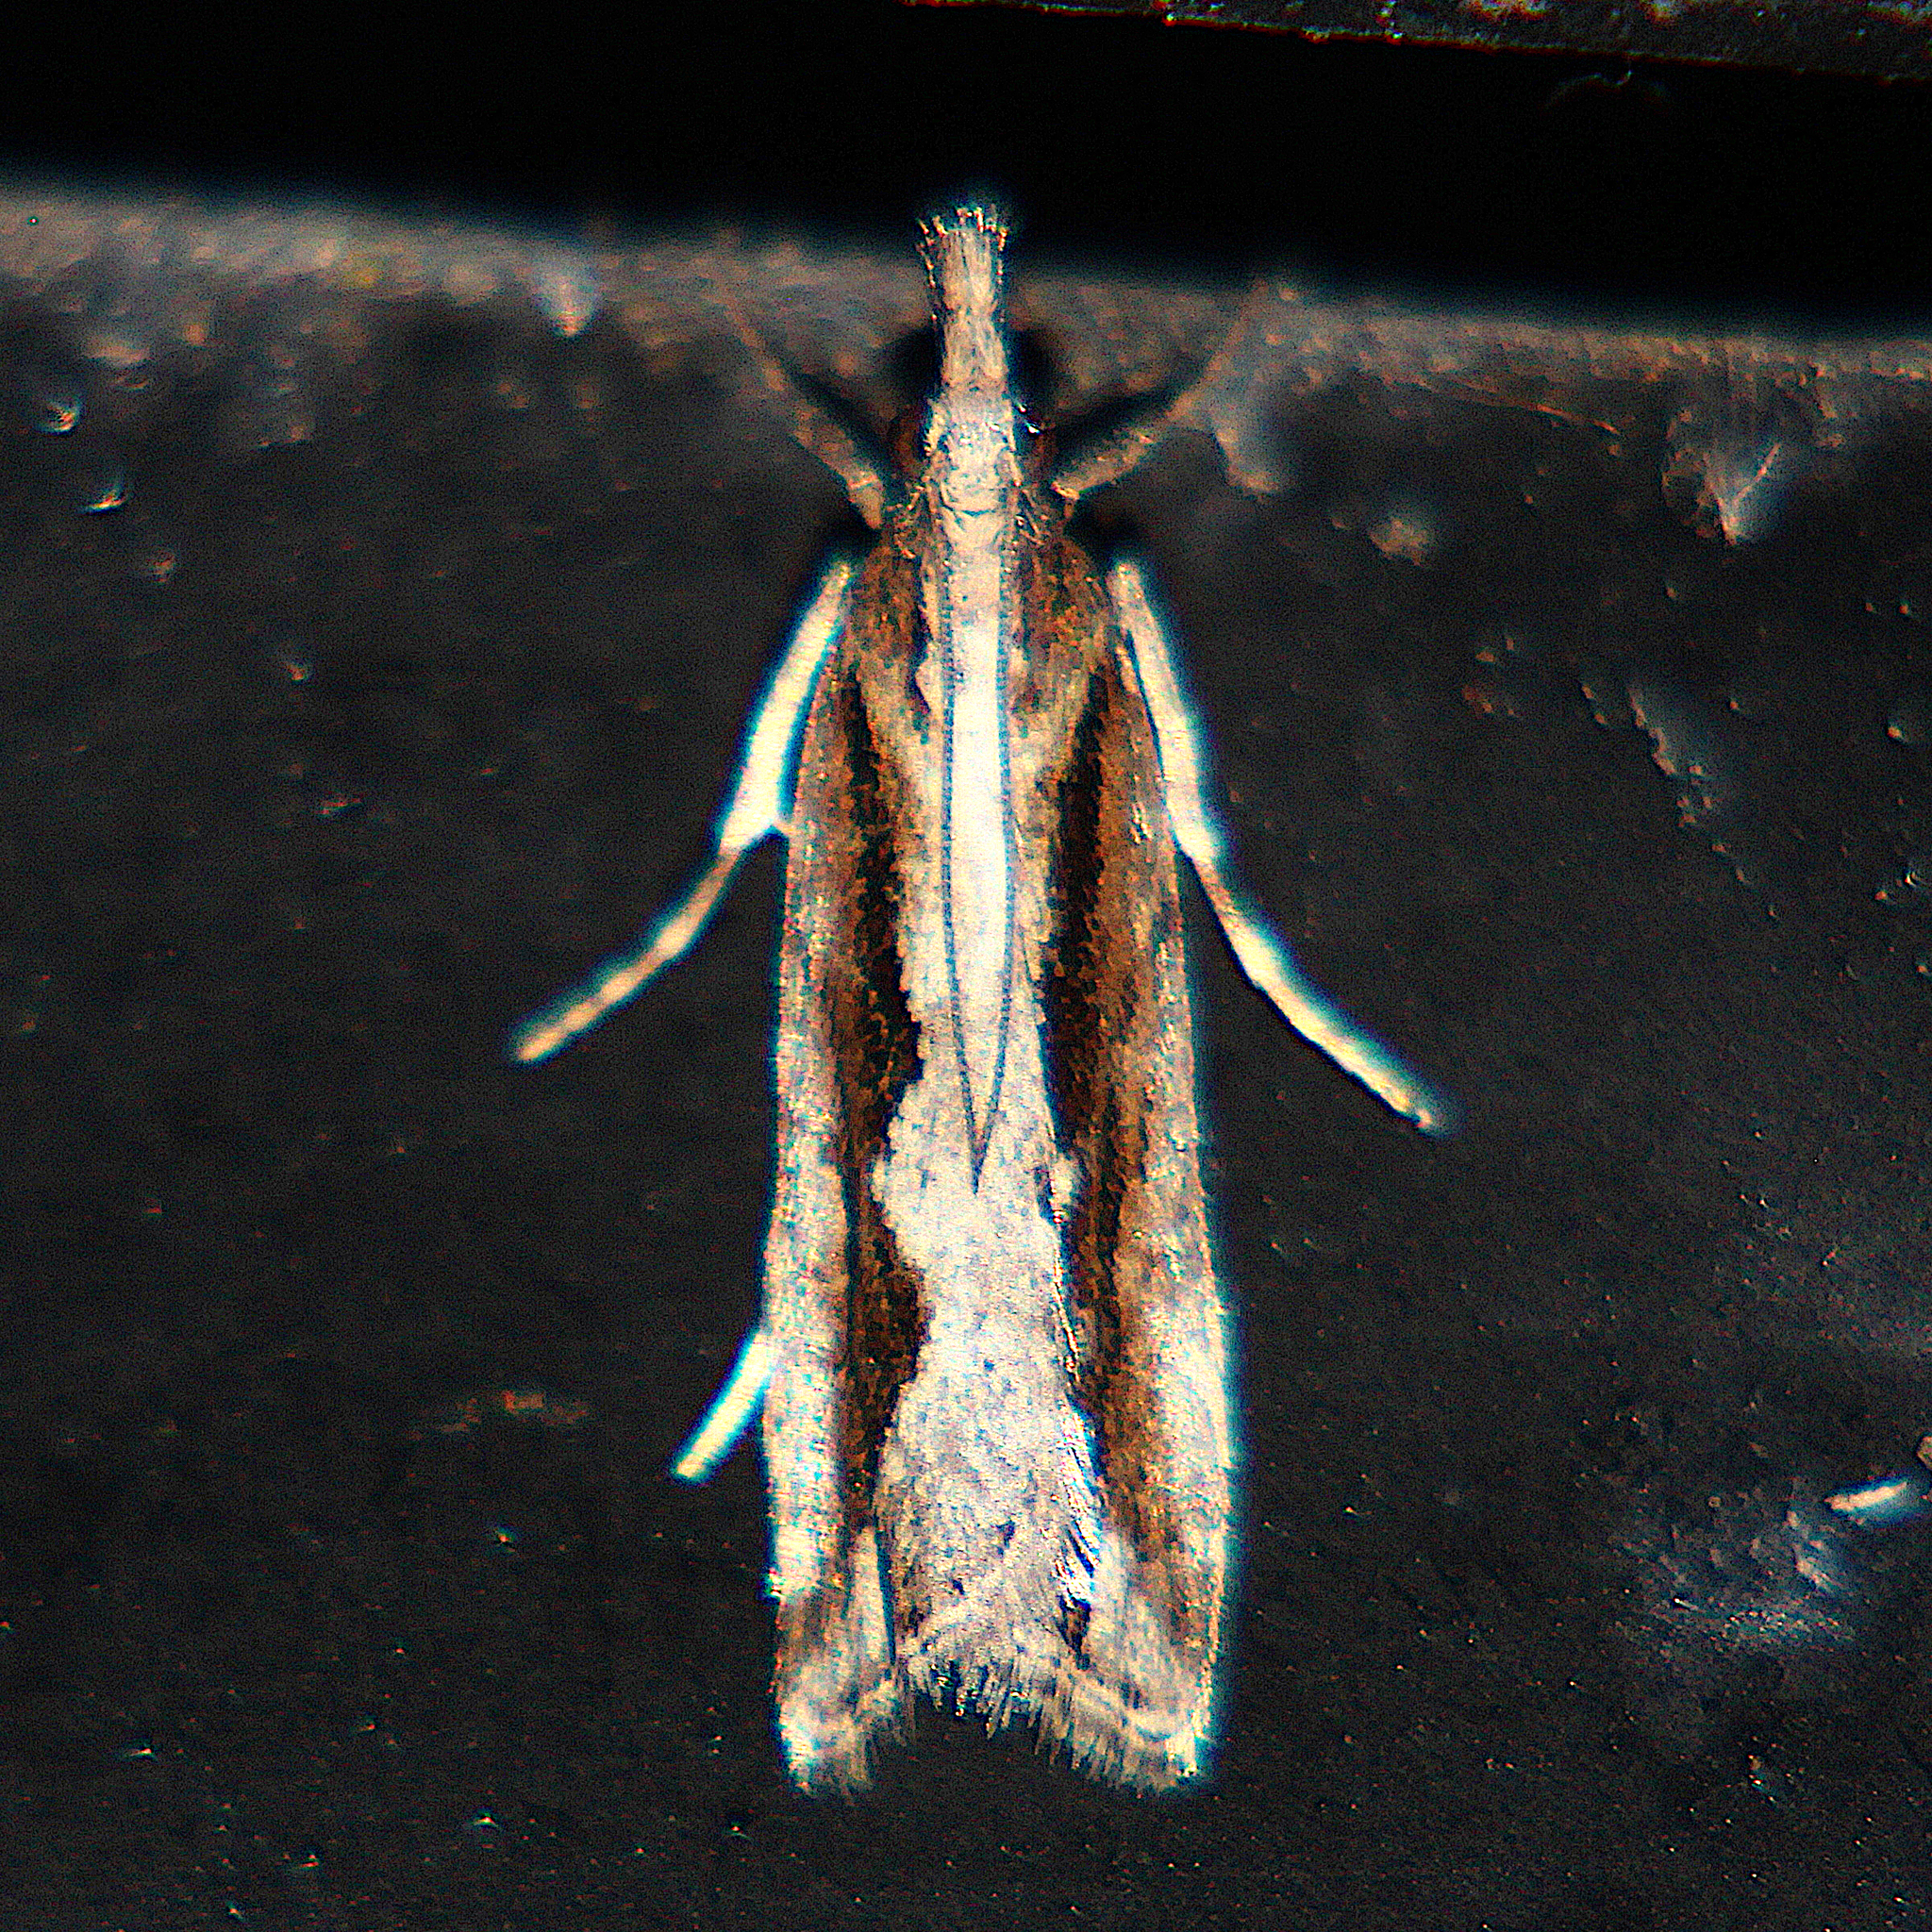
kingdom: Animalia
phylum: Arthropoda
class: Insecta
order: Lepidoptera
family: Crambidae
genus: Eudonia
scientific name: Eudonia steropaea
